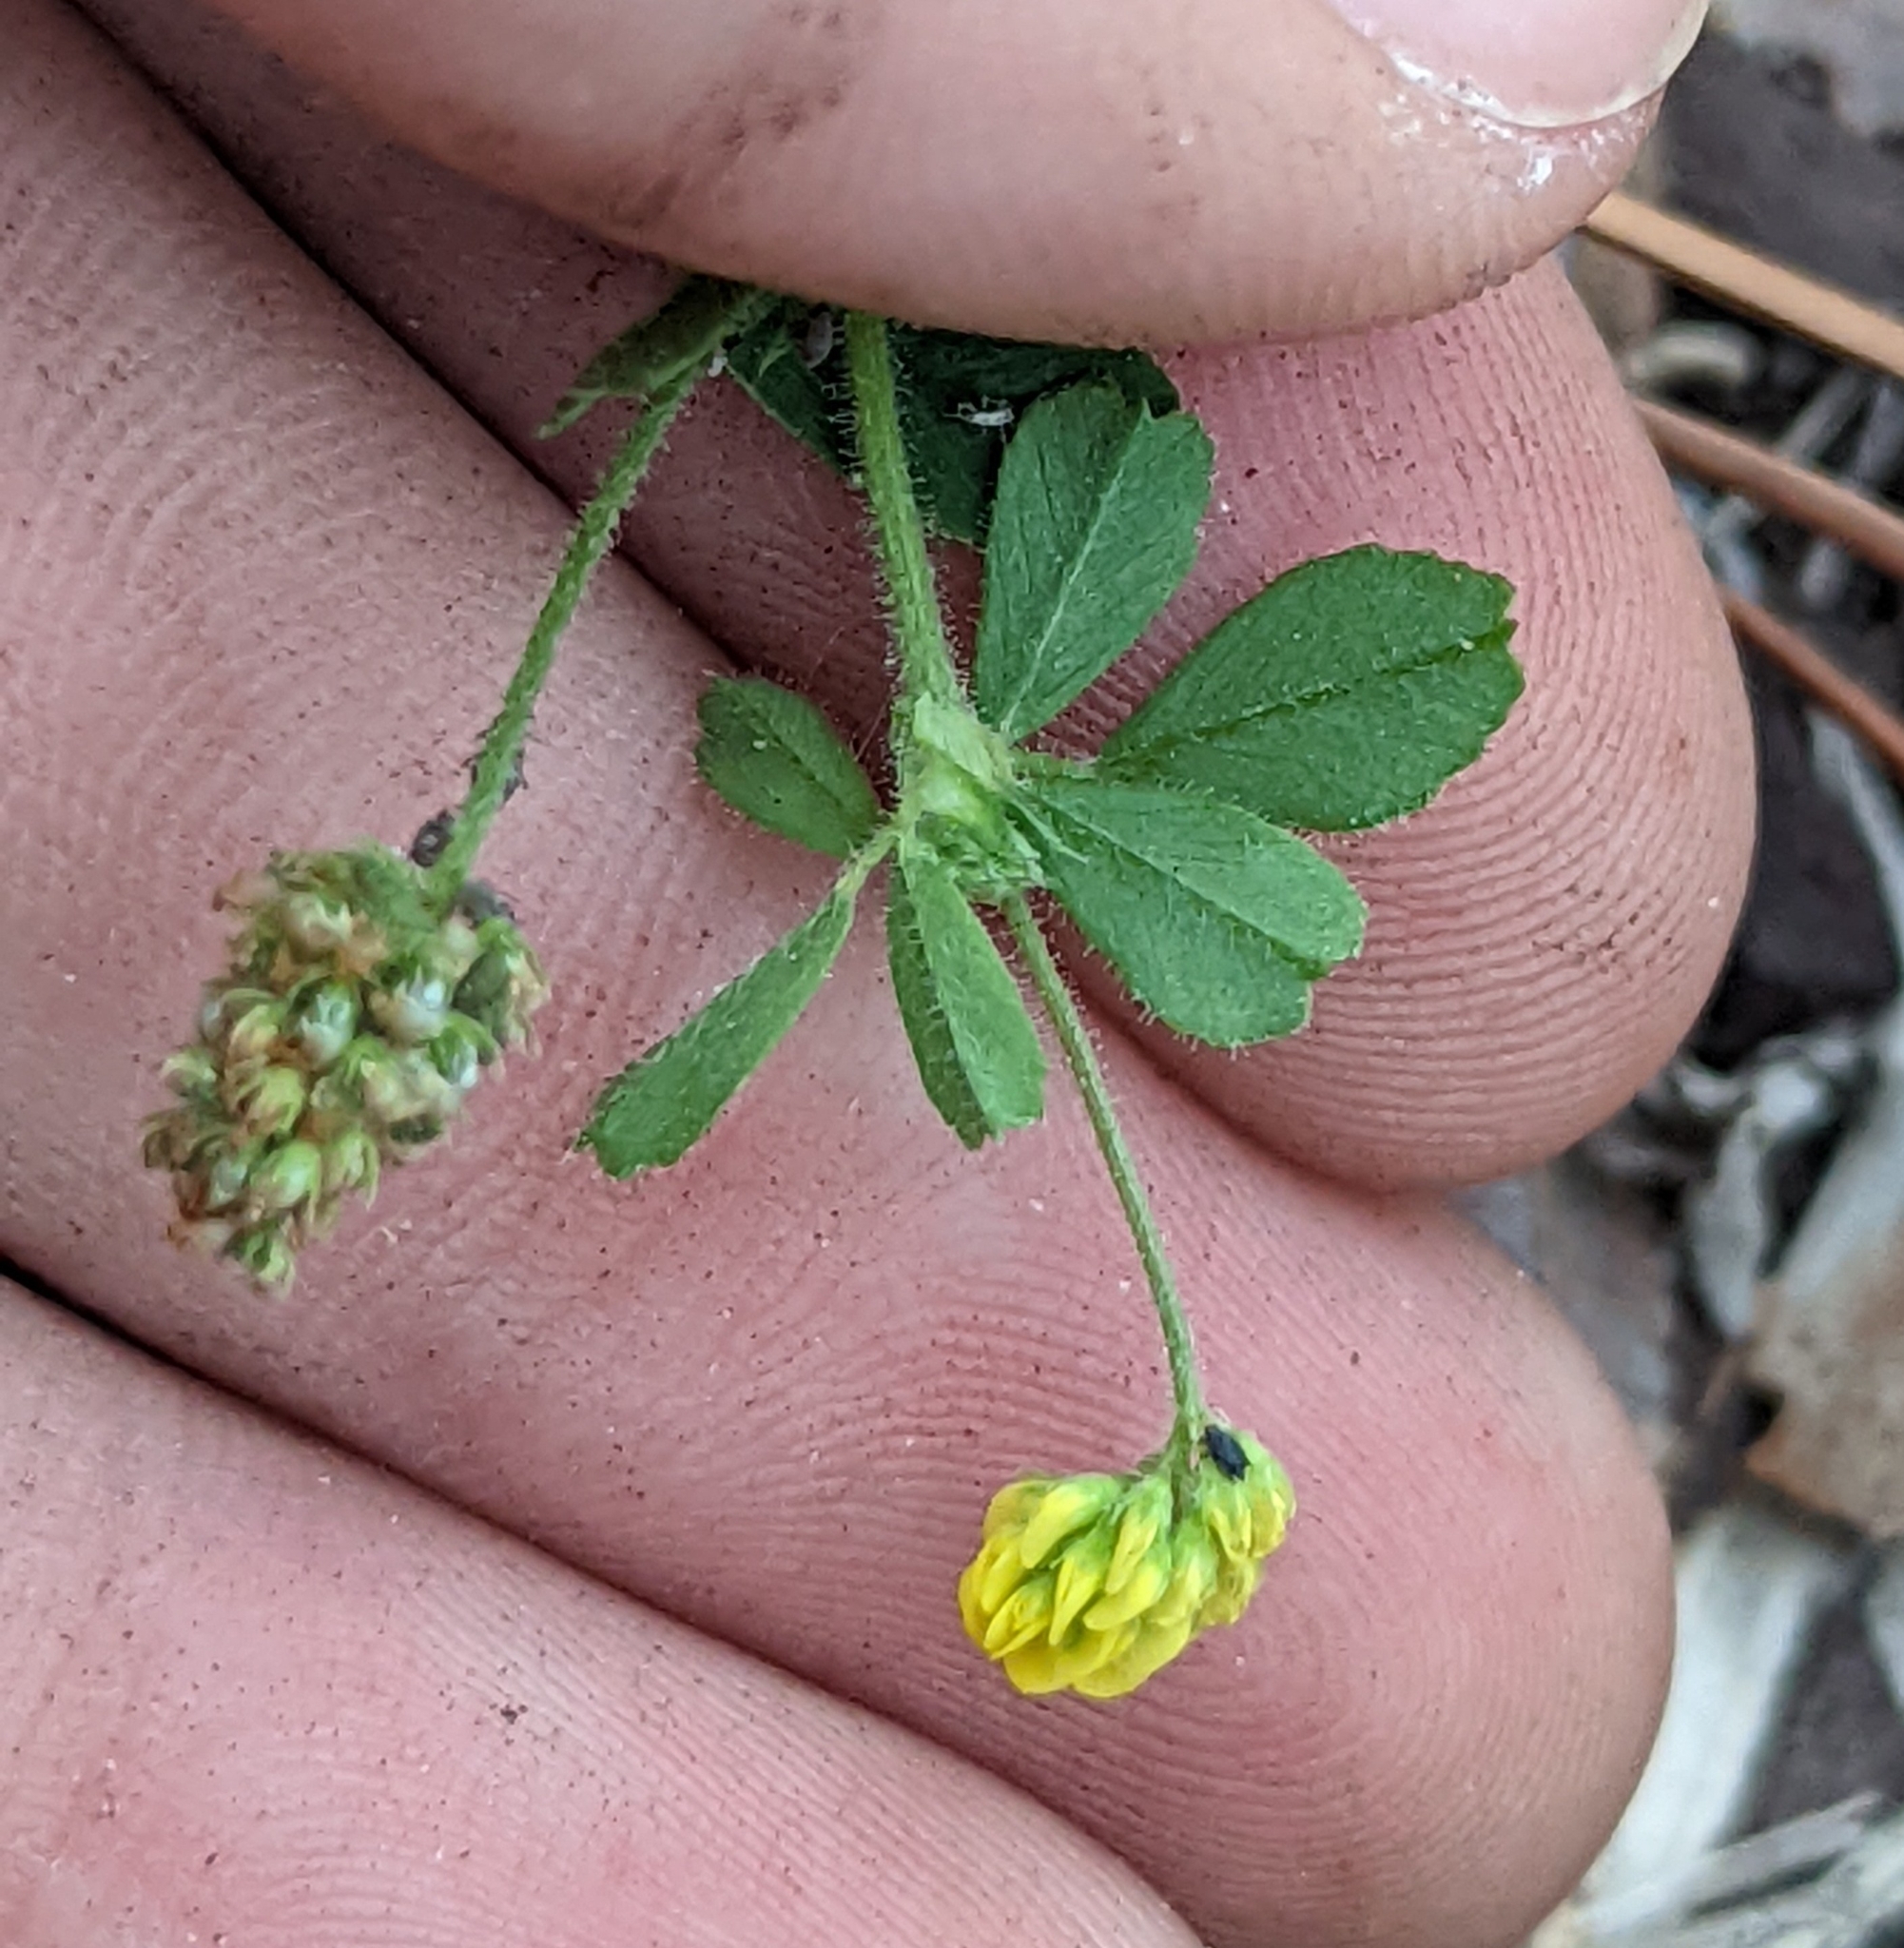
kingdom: Plantae
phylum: Tracheophyta
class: Magnoliopsida
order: Fabales
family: Fabaceae
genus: Medicago
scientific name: Medicago lupulina
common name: Black medick
